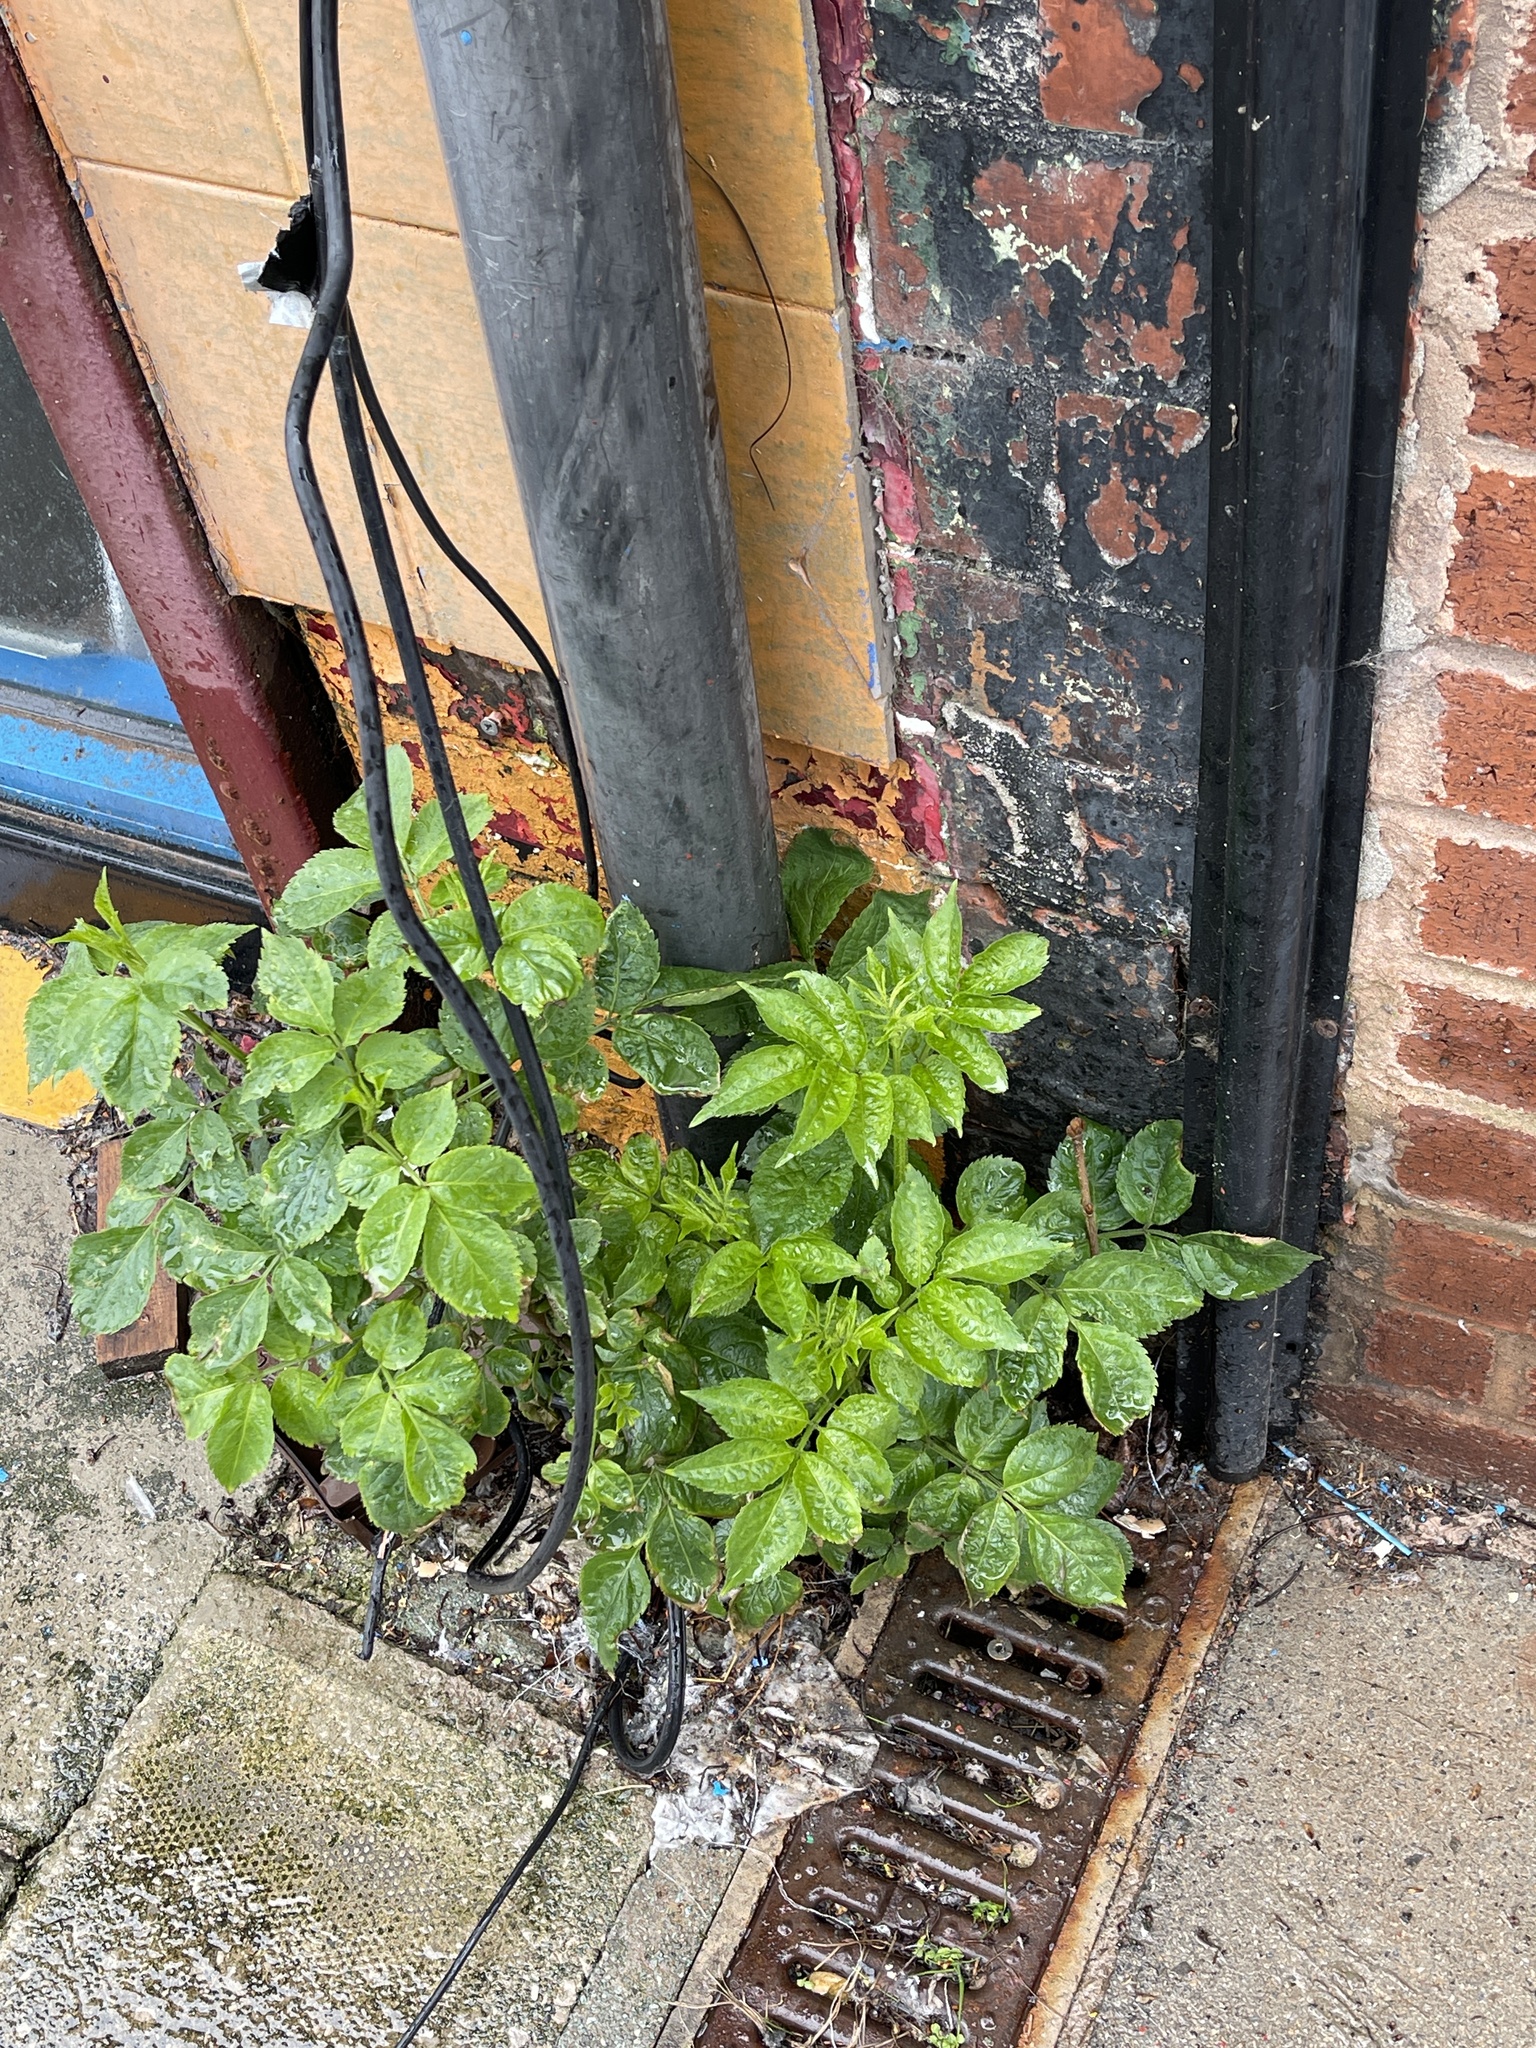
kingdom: Plantae
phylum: Tracheophyta
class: Magnoliopsida
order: Dipsacales
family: Viburnaceae
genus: Sambucus
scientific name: Sambucus nigra
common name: Elder
